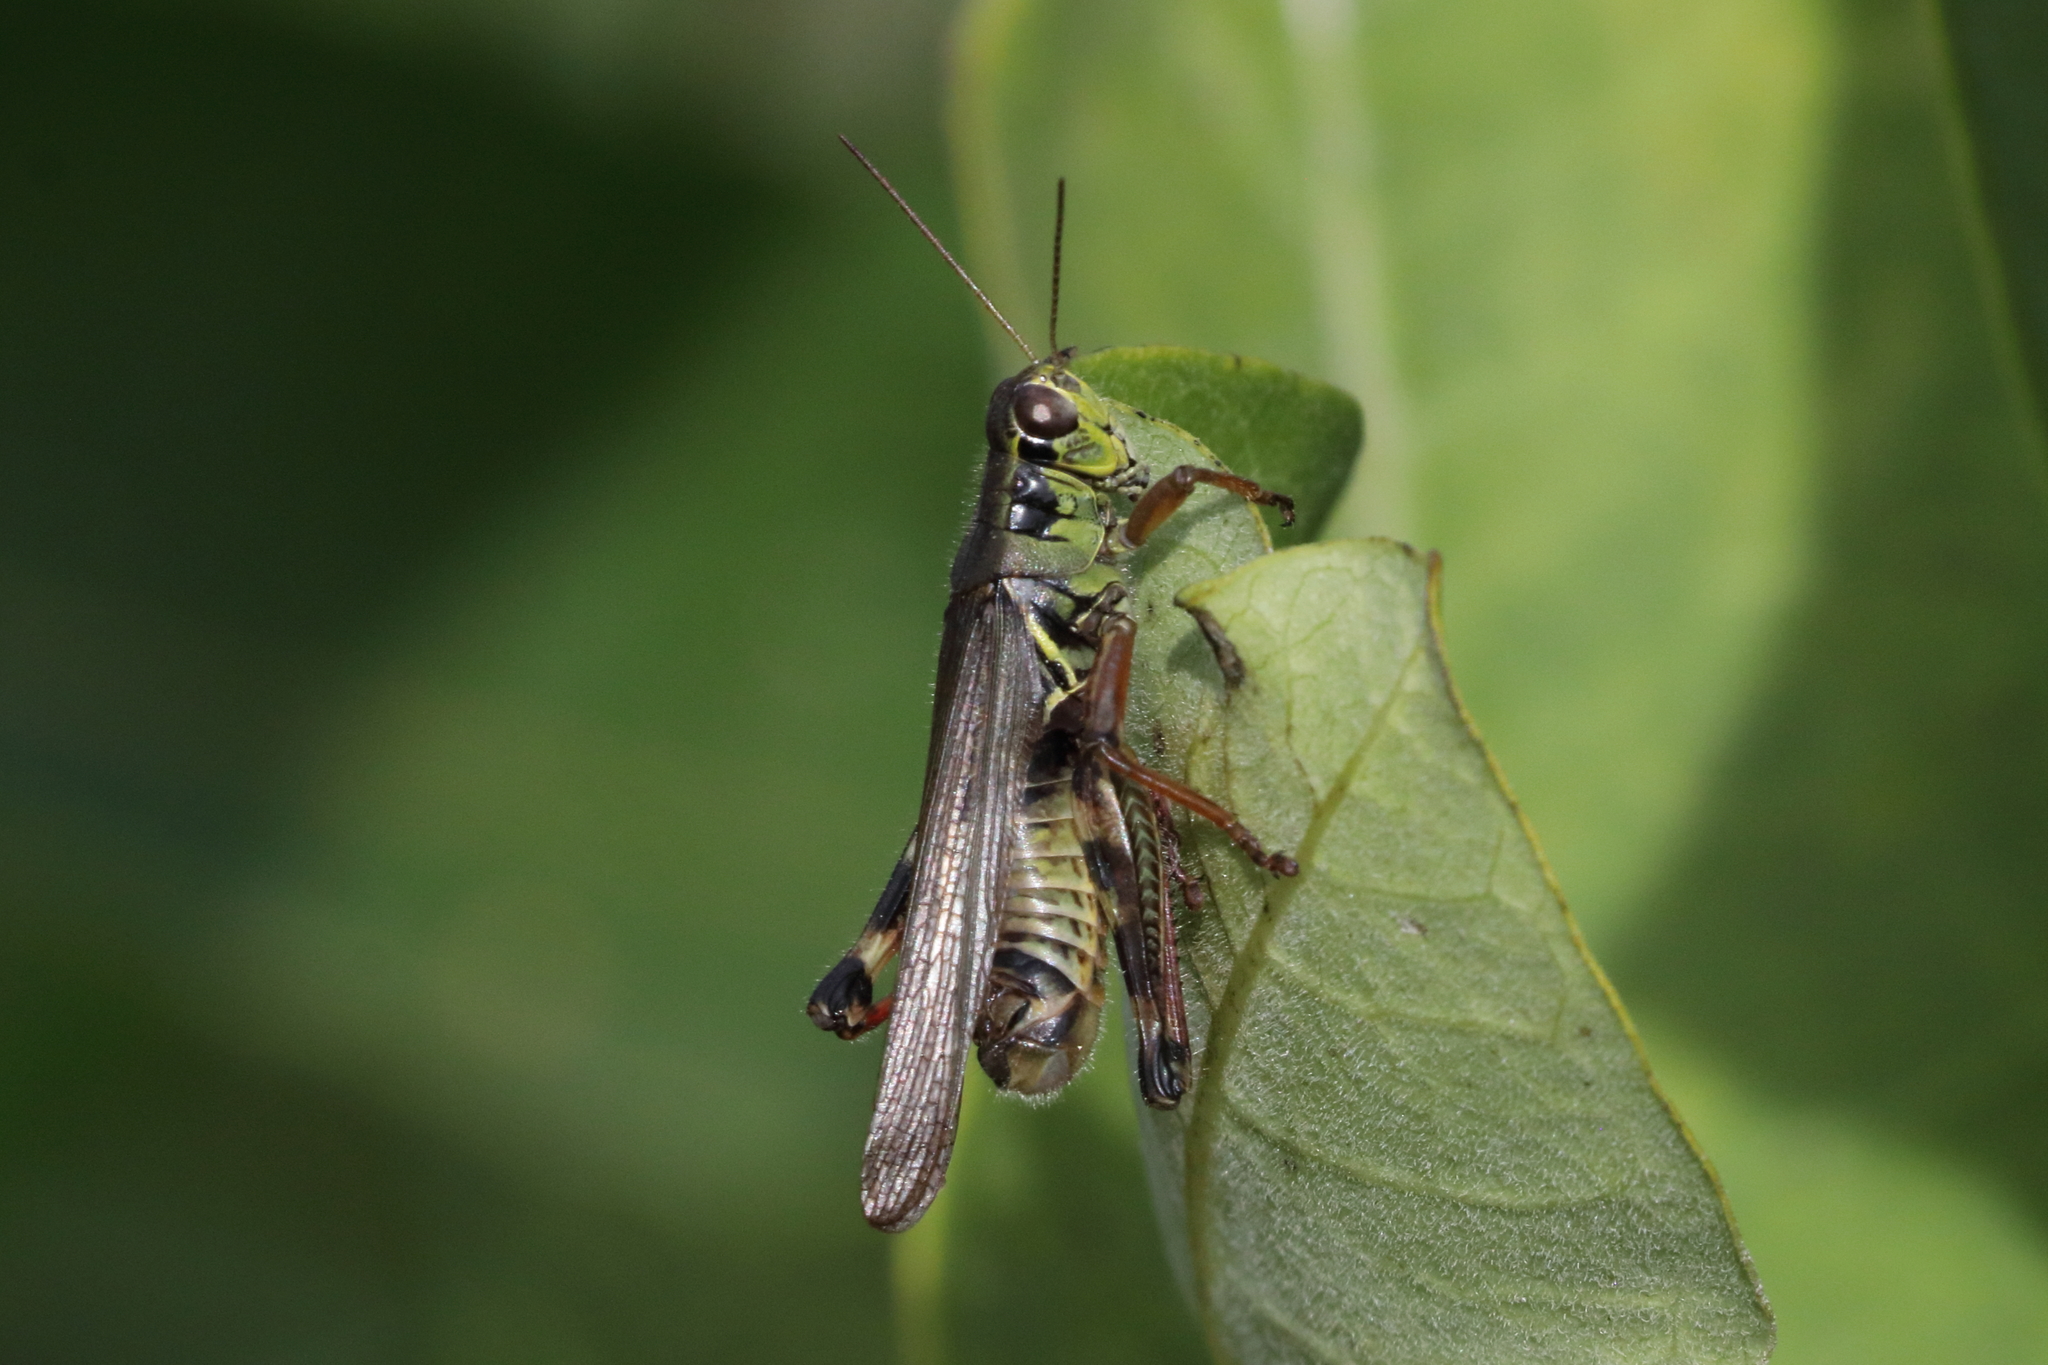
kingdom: Animalia
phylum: Arthropoda
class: Insecta
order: Orthoptera
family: Acrididae
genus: Melanoplus
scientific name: Melanoplus femurrubrum
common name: Red-legged grasshopper
